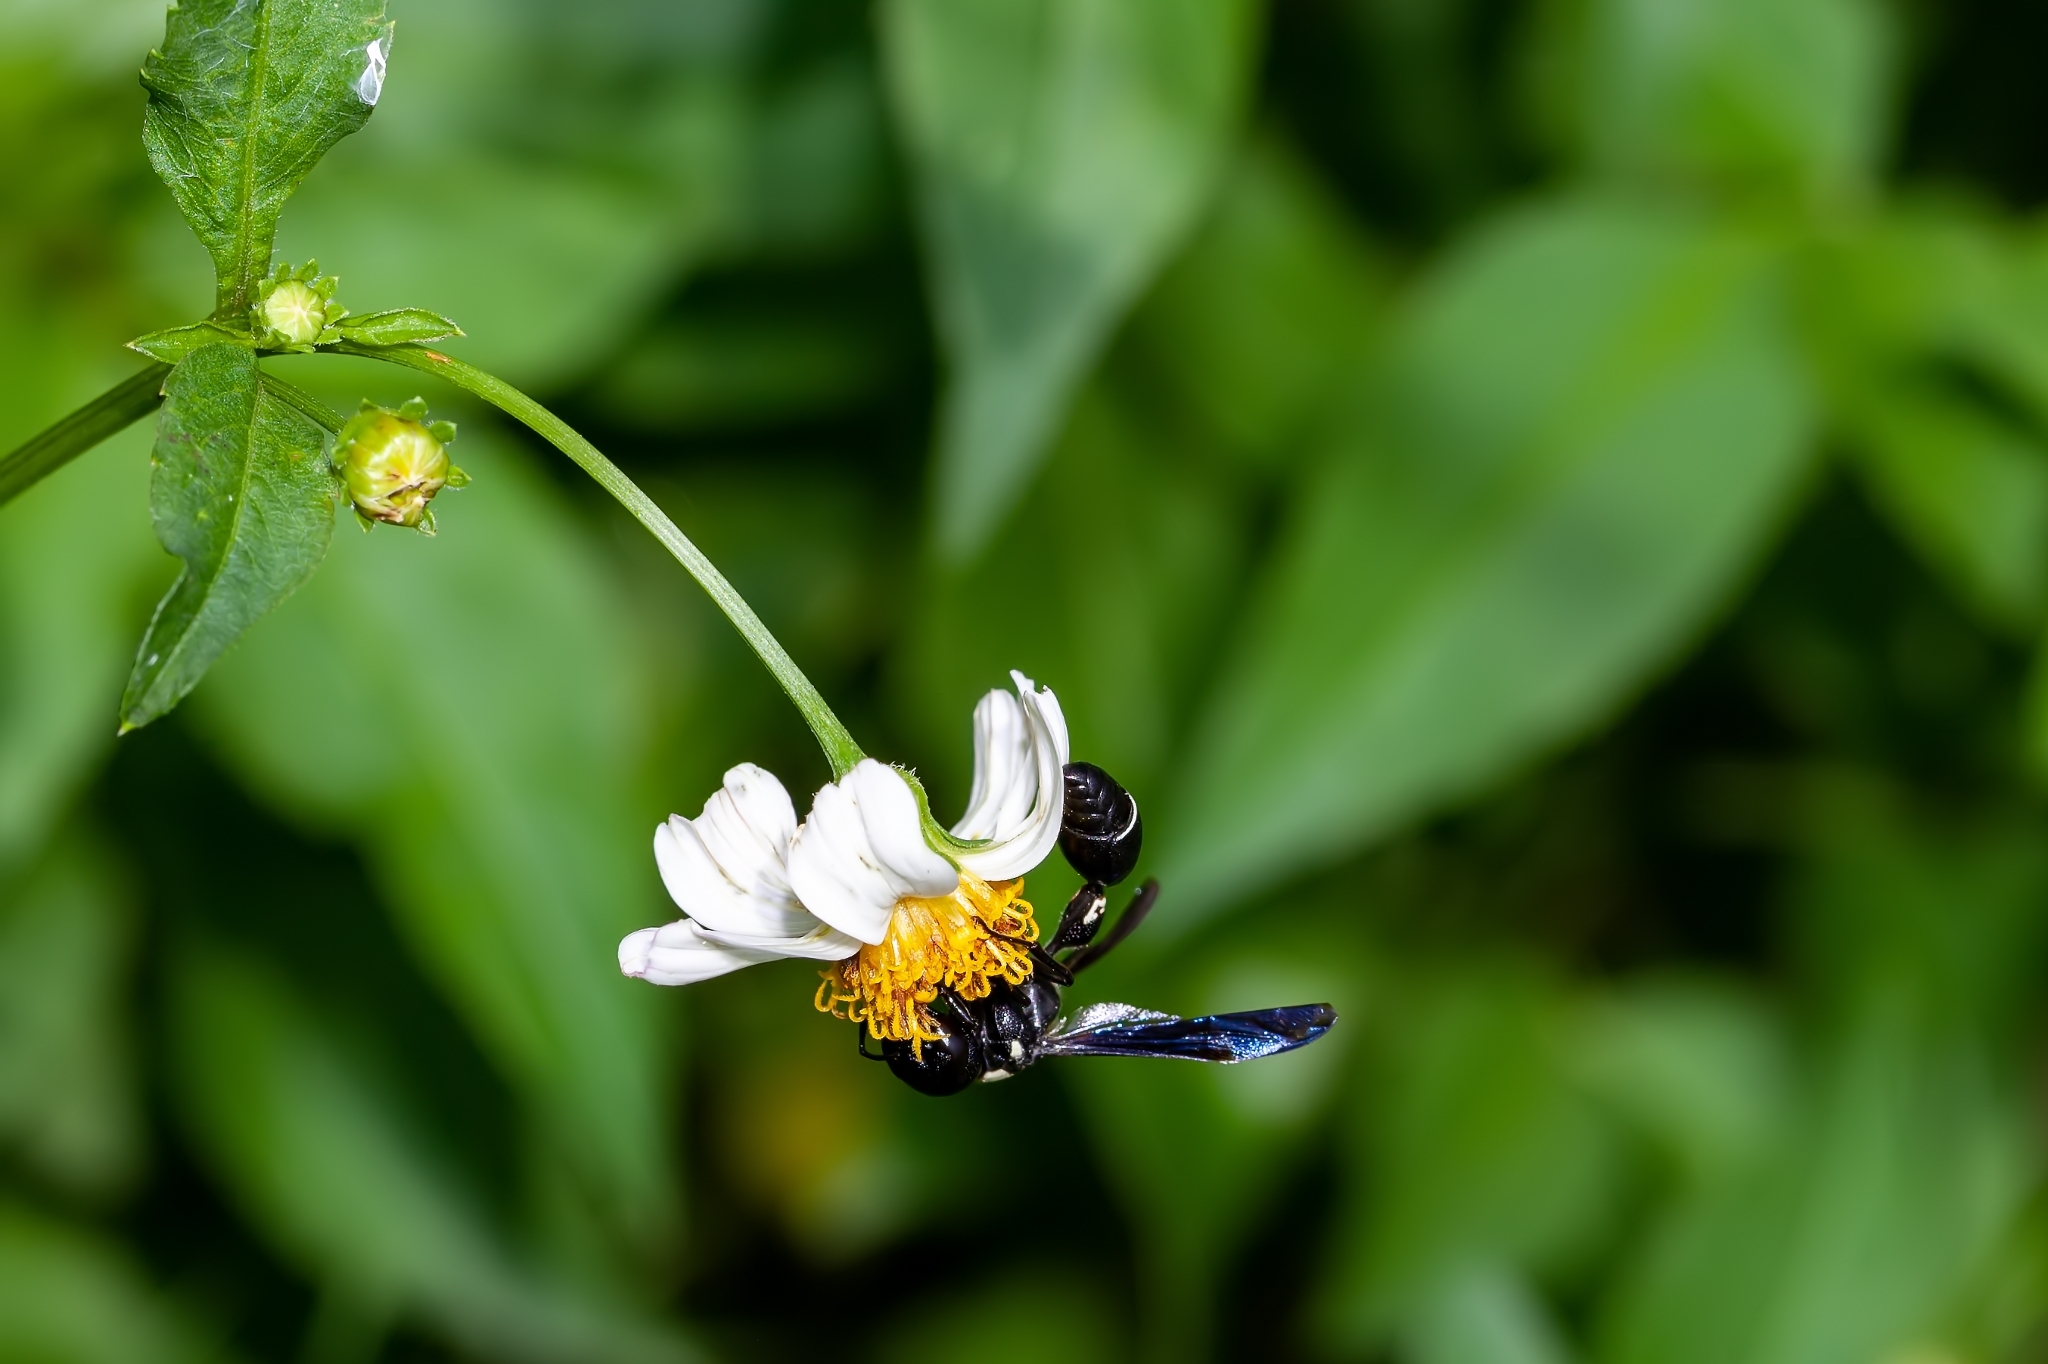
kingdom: Animalia
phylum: Arthropoda
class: Insecta
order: Hymenoptera
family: Eumenidae
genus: Zethus
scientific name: Zethus spinipes
